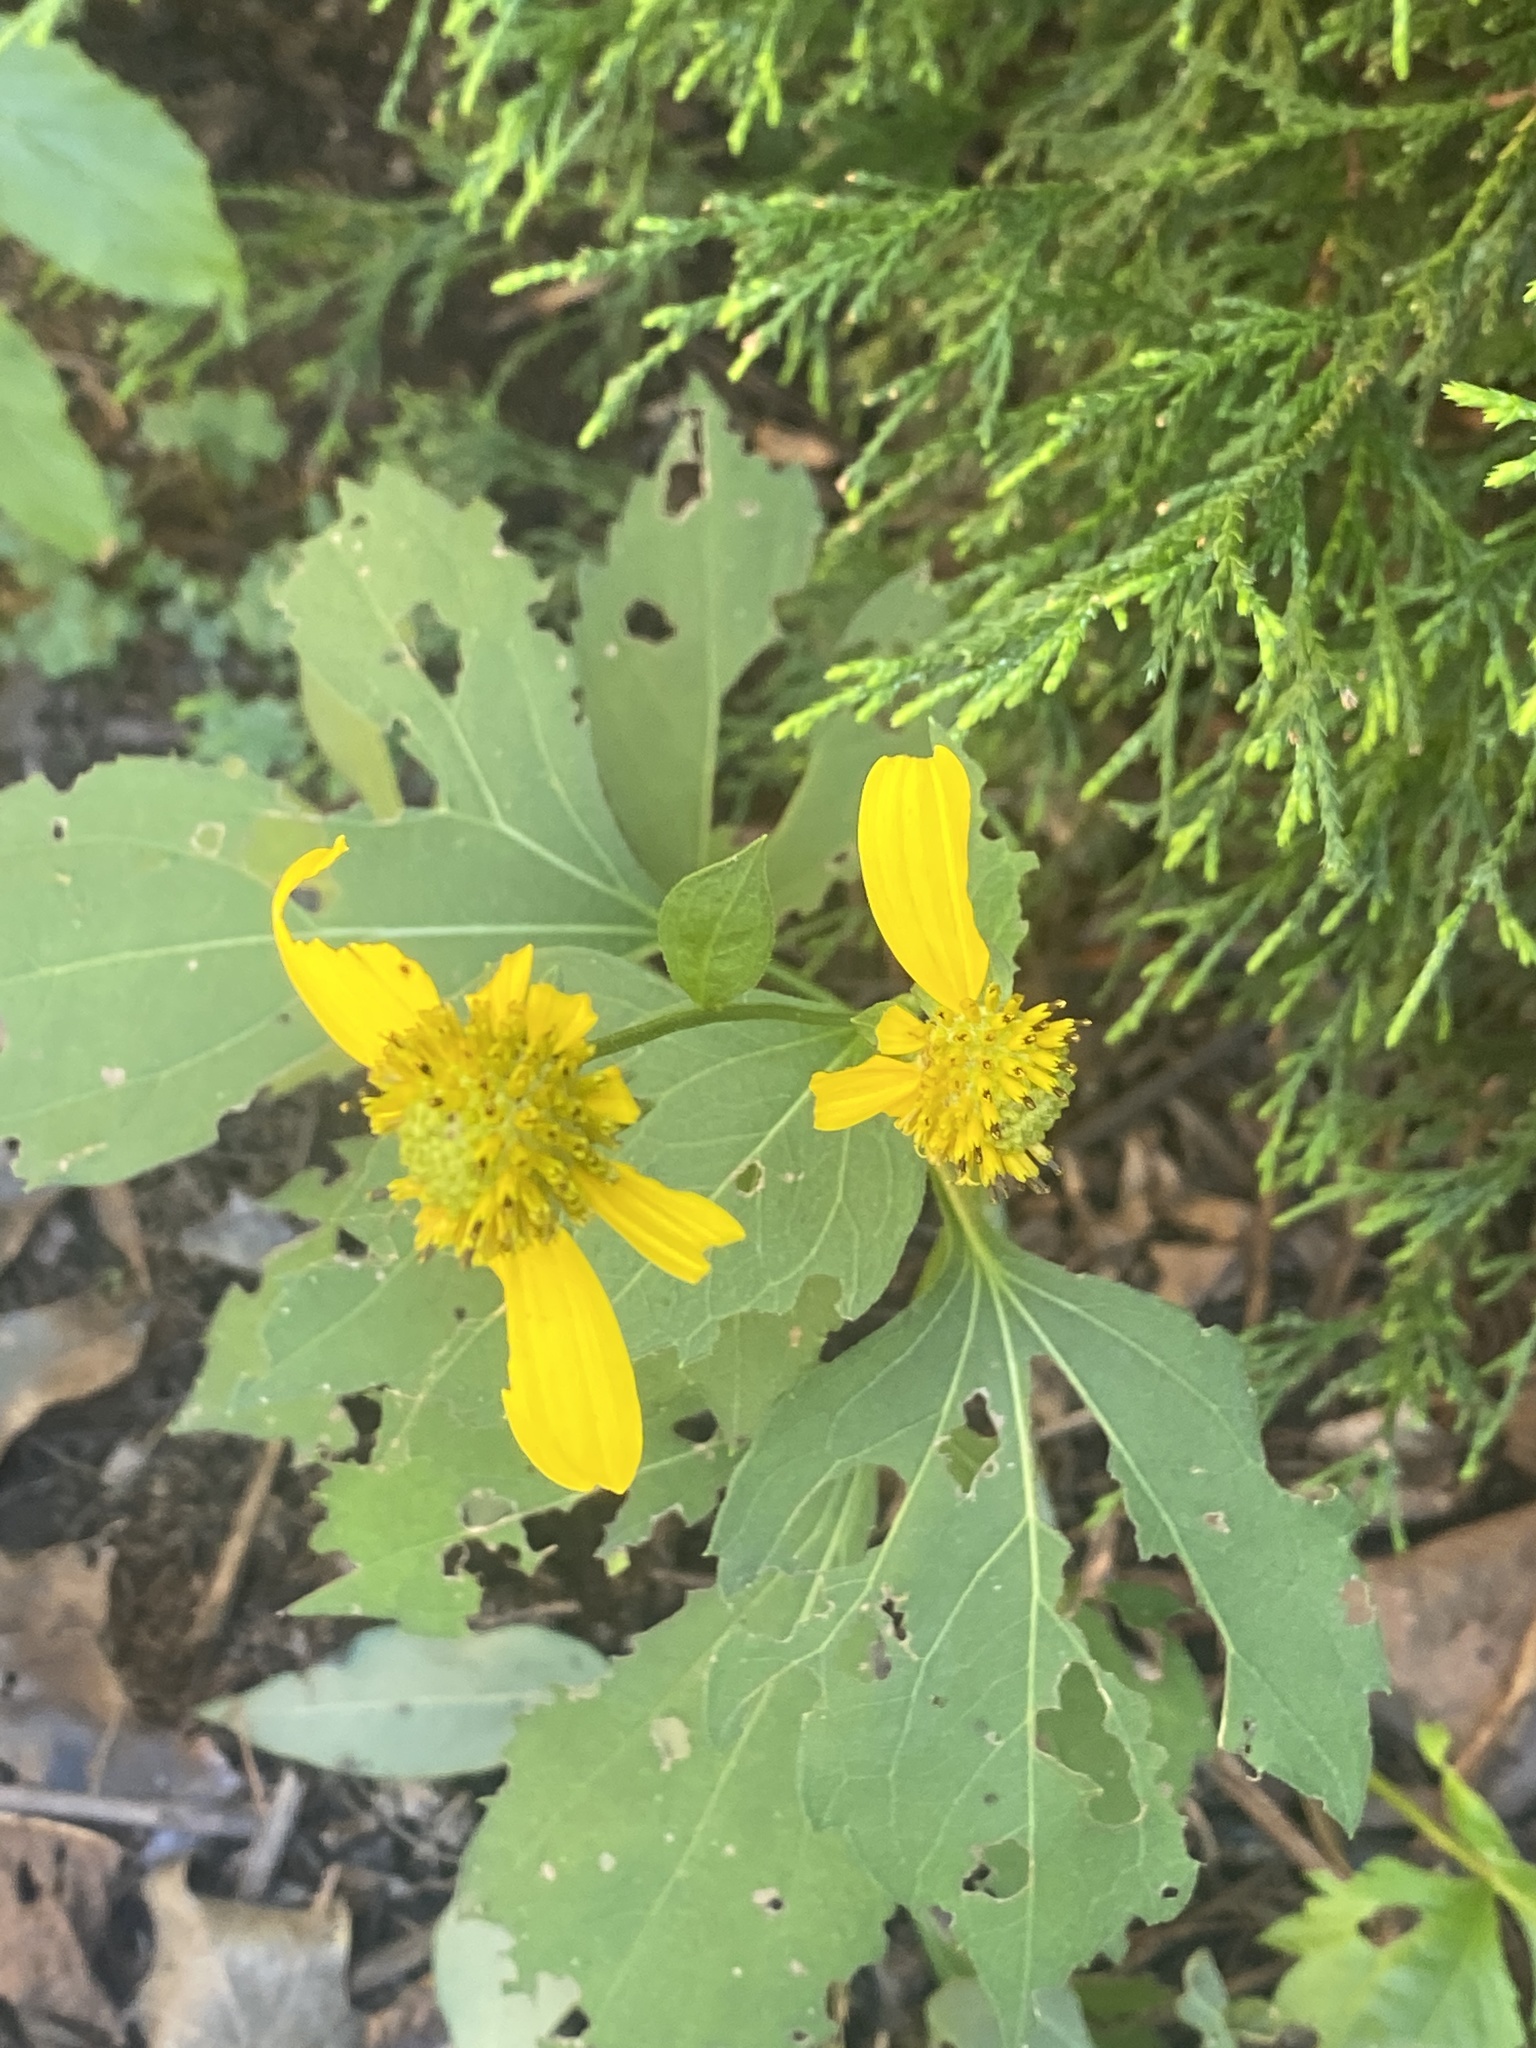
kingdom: Plantae
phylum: Tracheophyta
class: Magnoliopsida
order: Asterales
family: Asteraceae
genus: Rudbeckia
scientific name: Rudbeckia laciniata
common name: Coneflower
